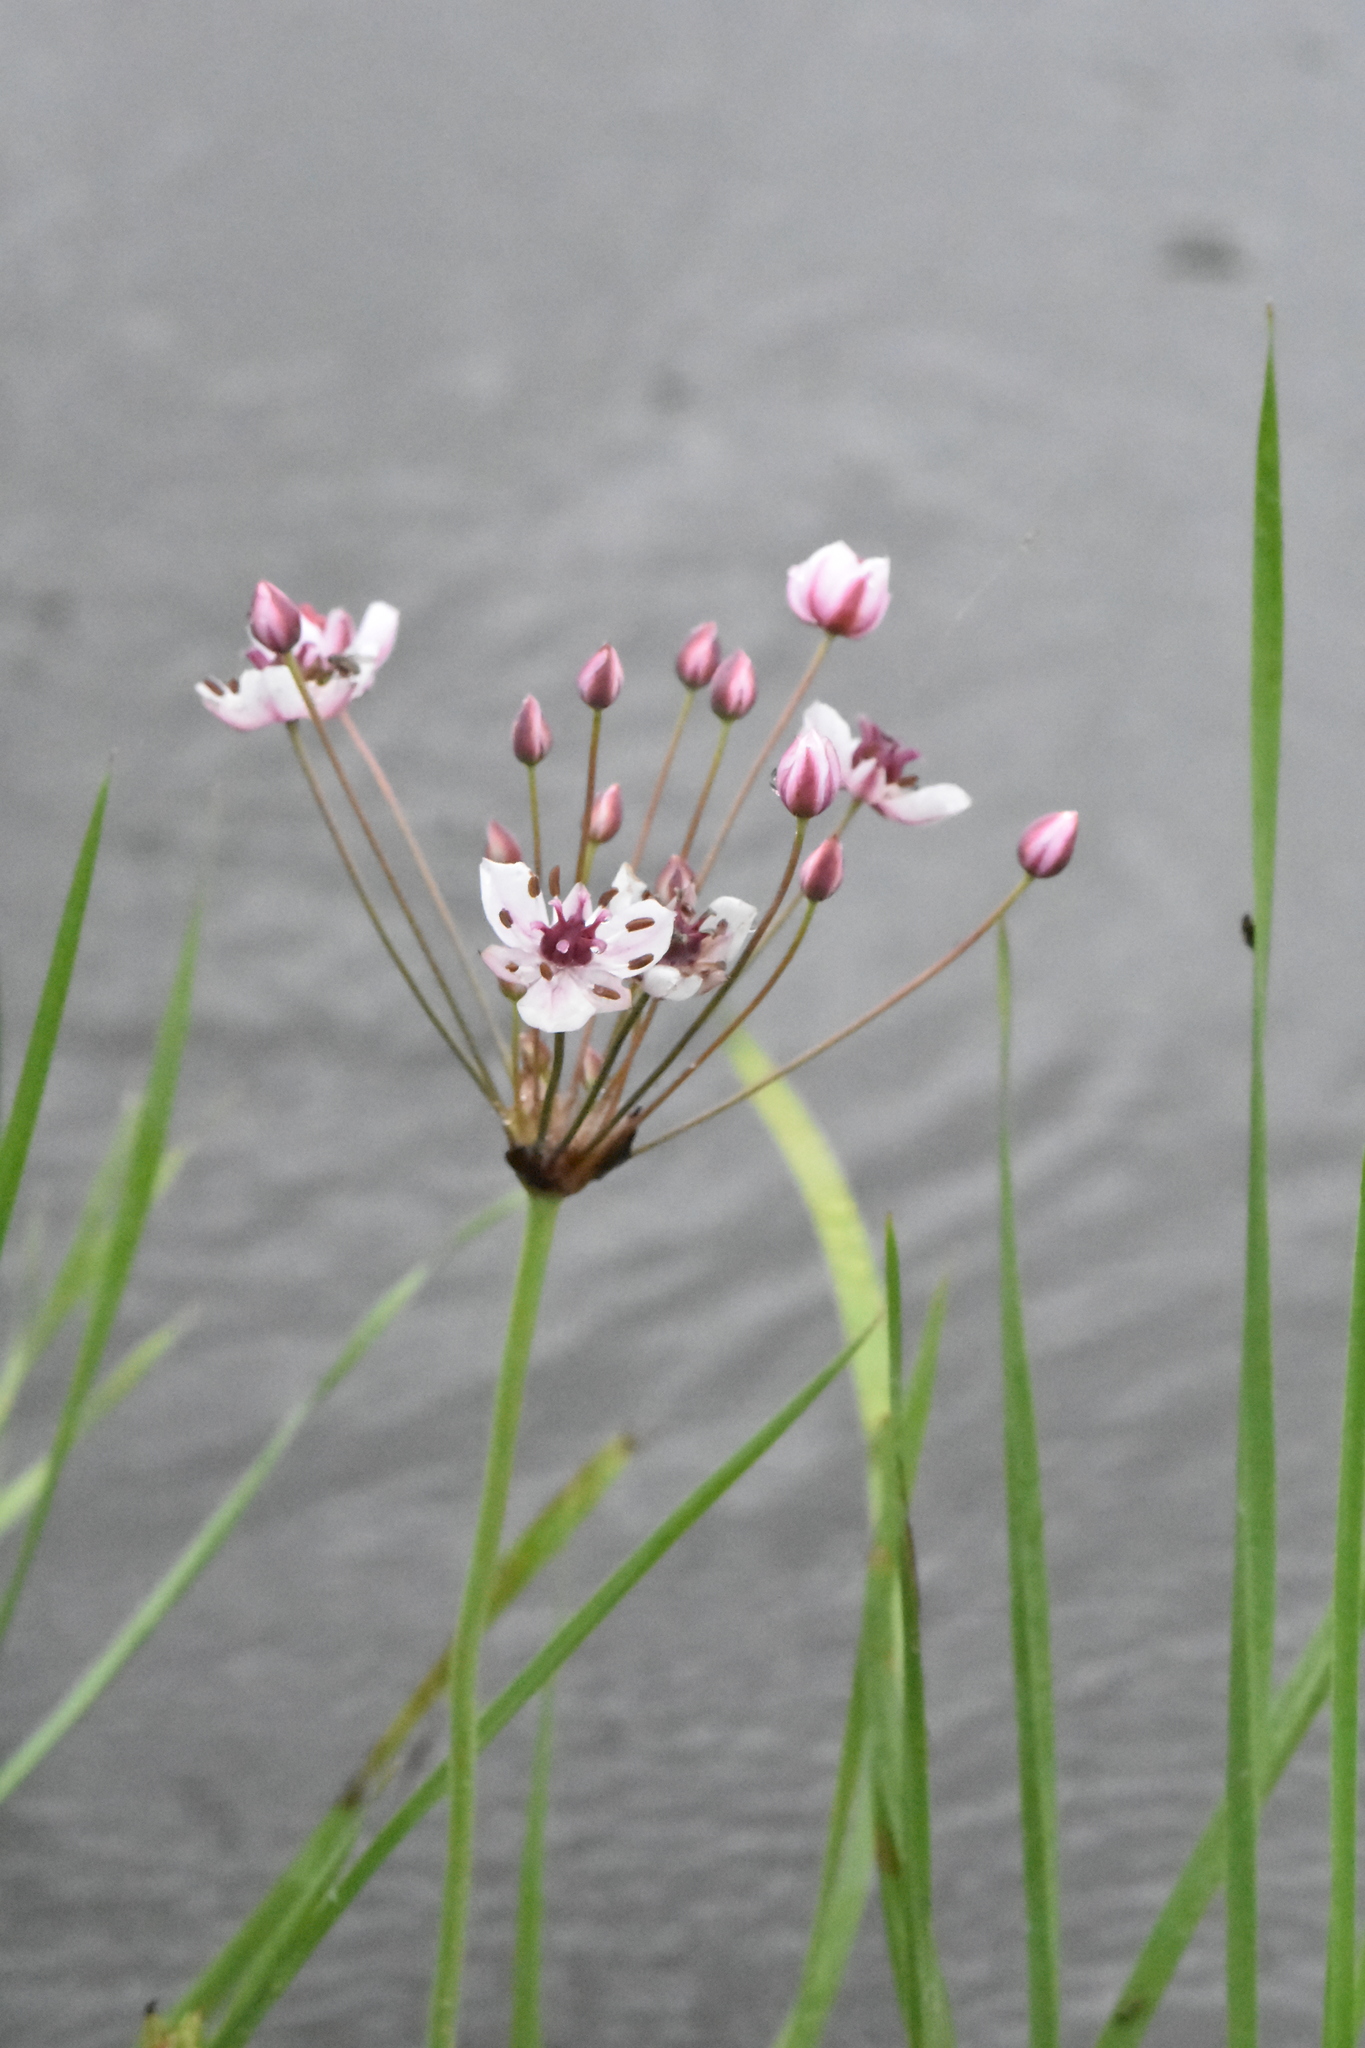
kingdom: Plantae
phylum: Tracheophyta
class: Liliopsida
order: Alismatales
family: Butomaceae
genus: Butomus
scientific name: Butomus umbellatus
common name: Flowering-rush
